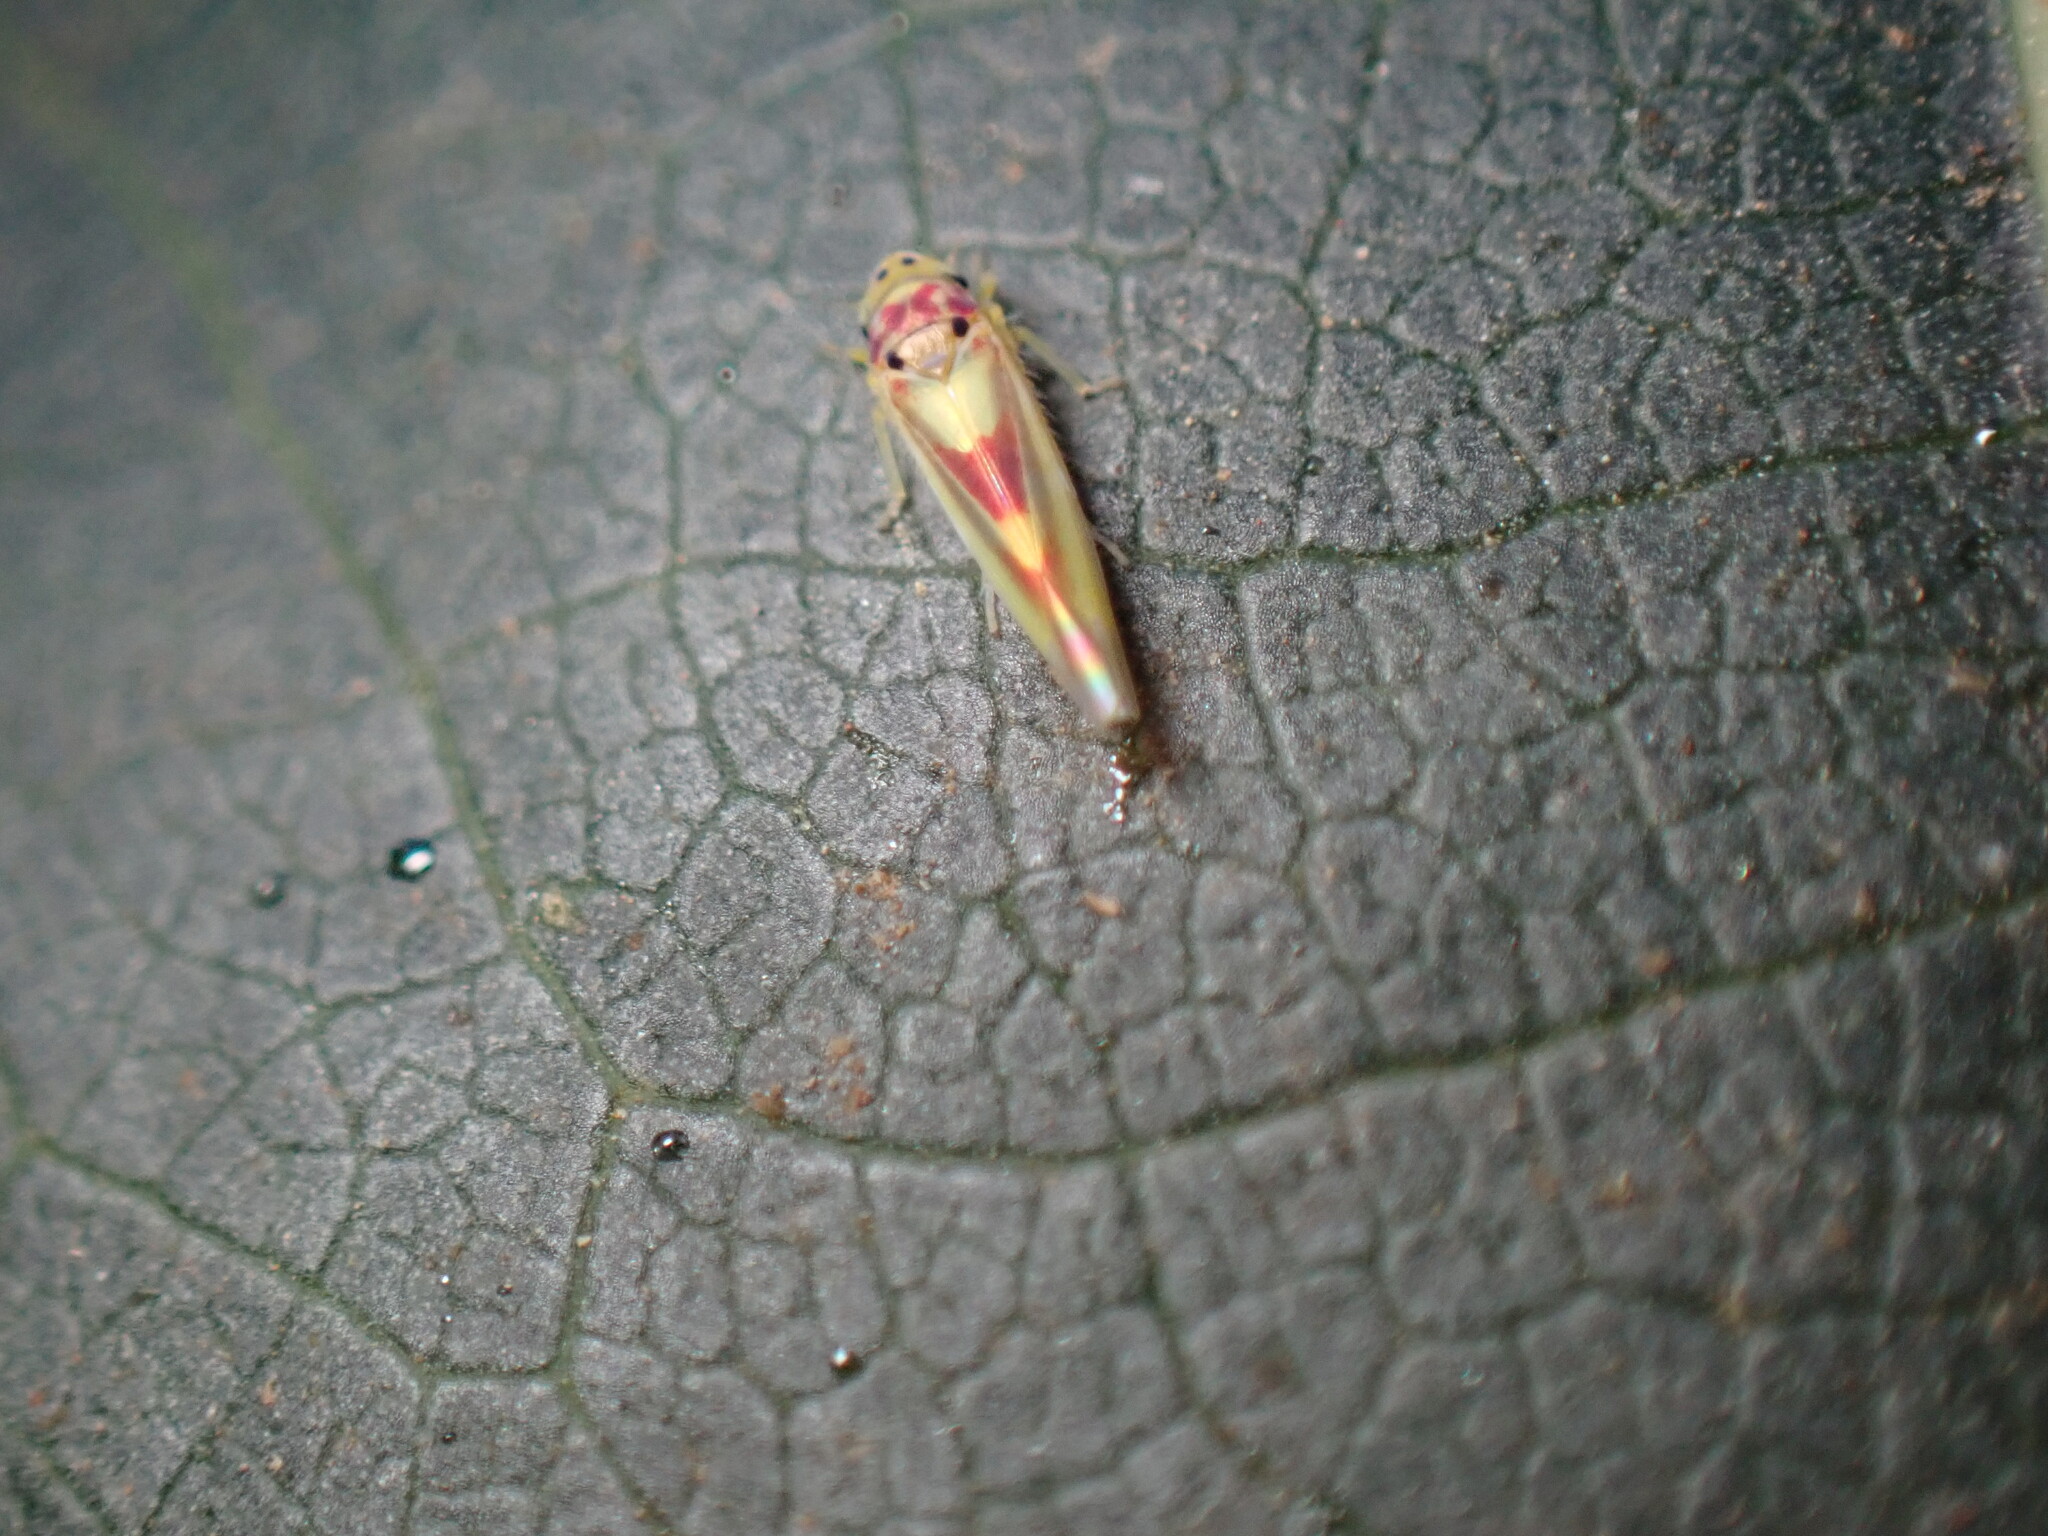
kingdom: Animalia
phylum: Arthropoda
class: Insecta
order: Hemiptera
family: Cicadellidae
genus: Zygina
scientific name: Zygina lunaris
